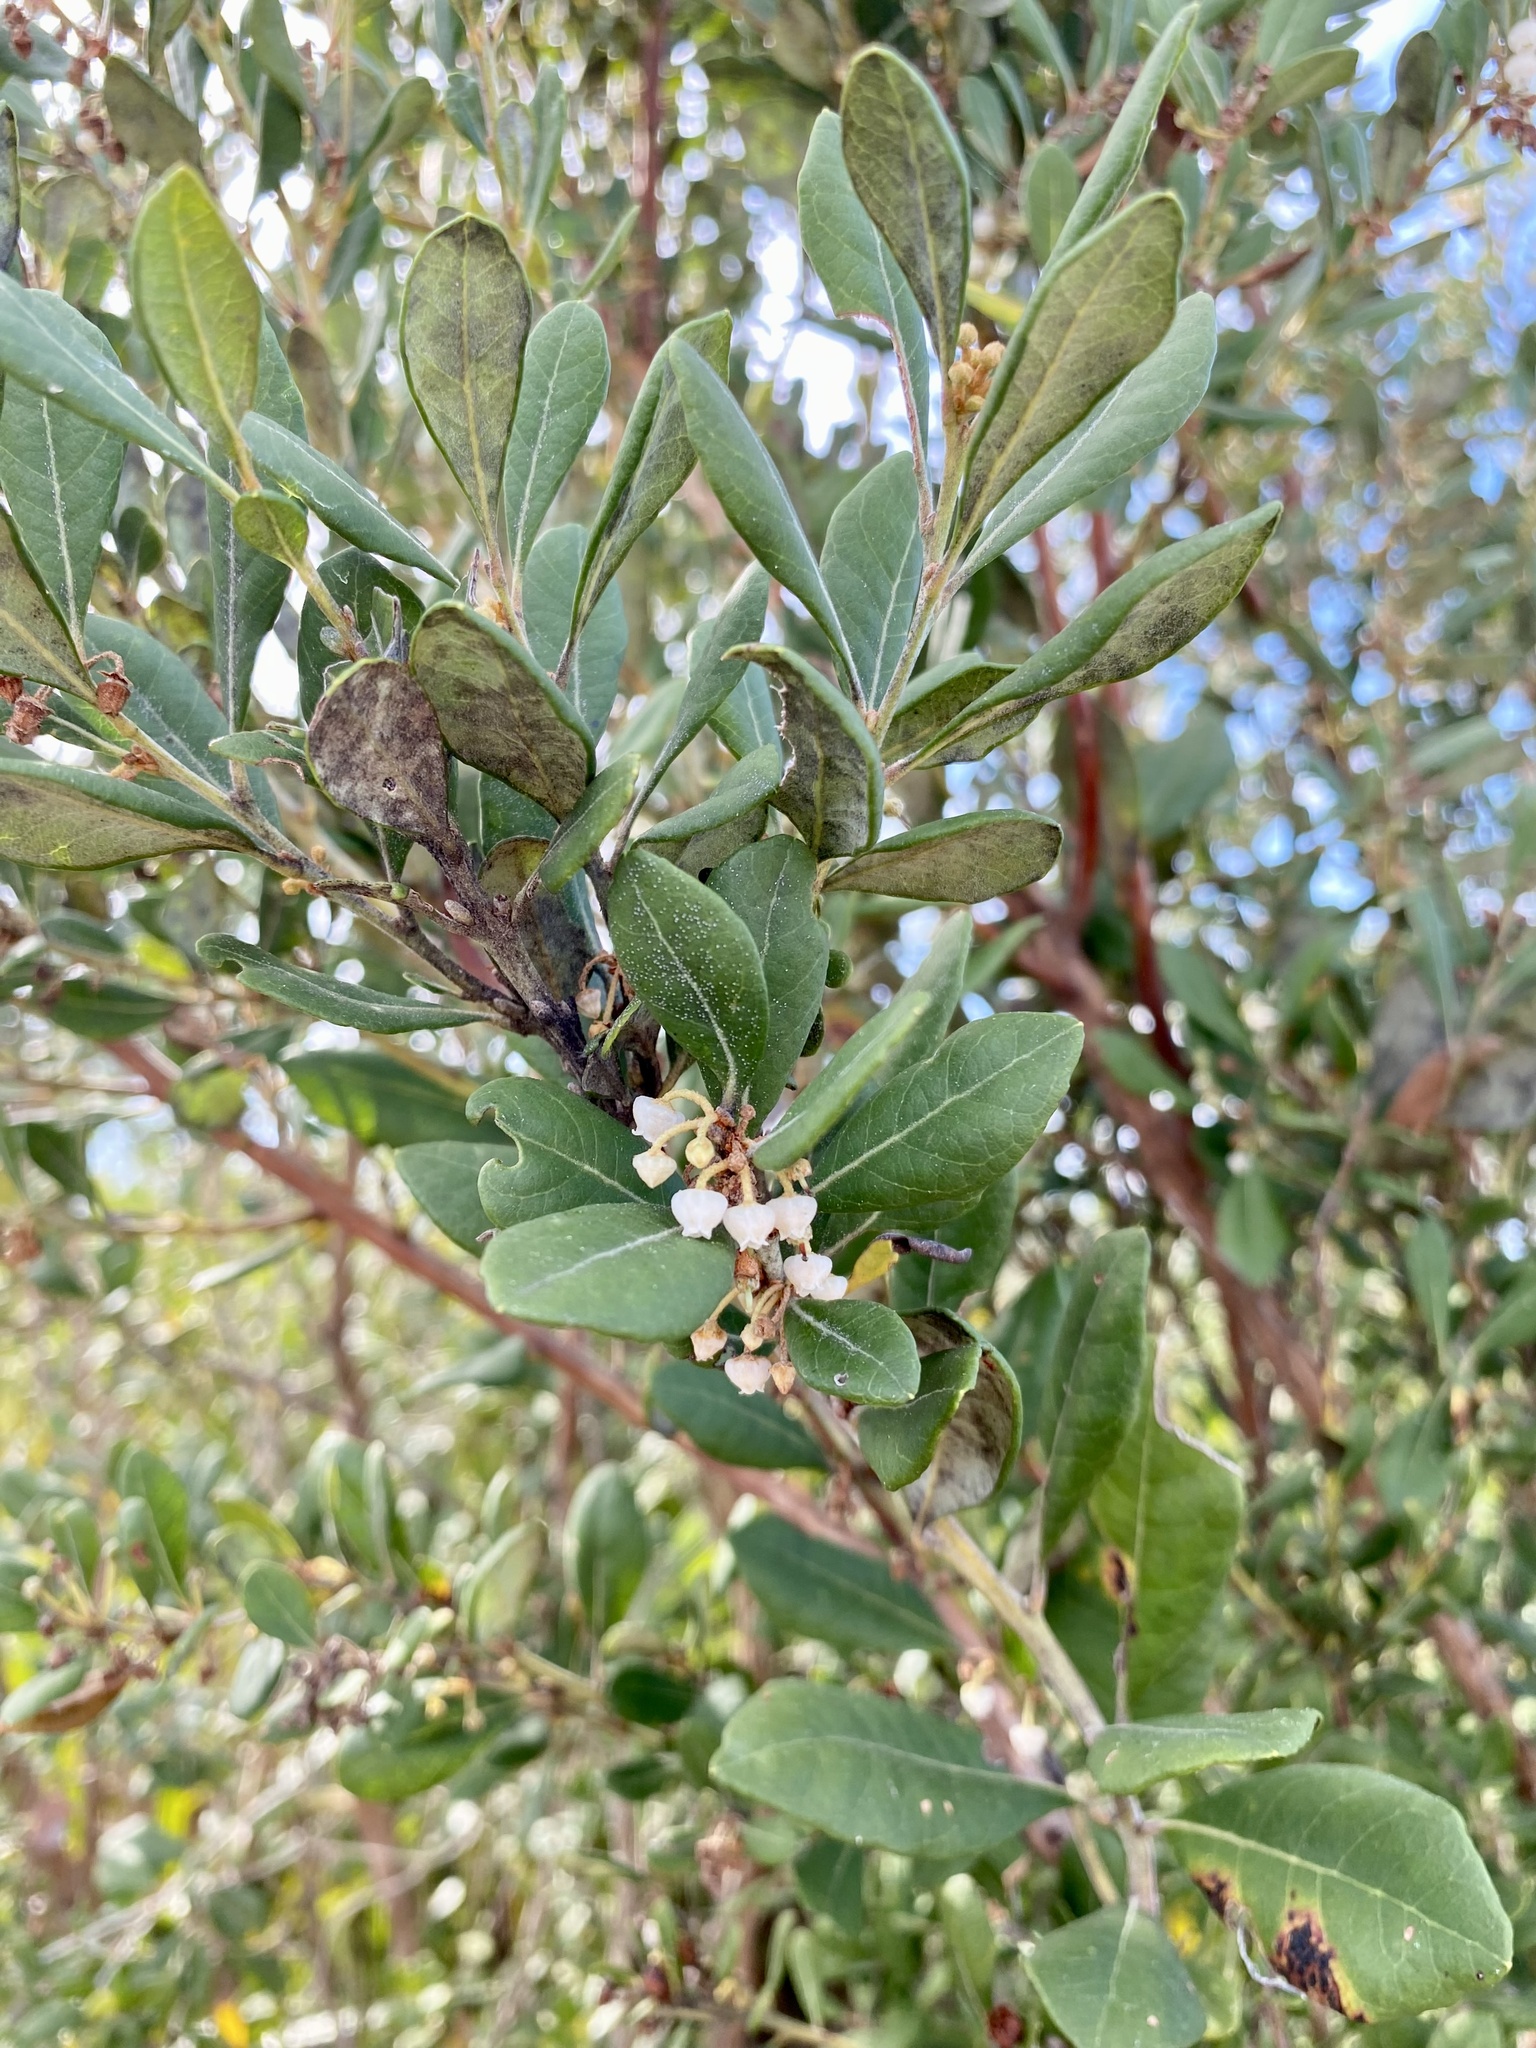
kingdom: Plantae
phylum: Tracheophyta
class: Magnoliopsida
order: Ericales
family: Ericaceae
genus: Lyonia
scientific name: Lyonia ferruginea
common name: Rusty lyonia
